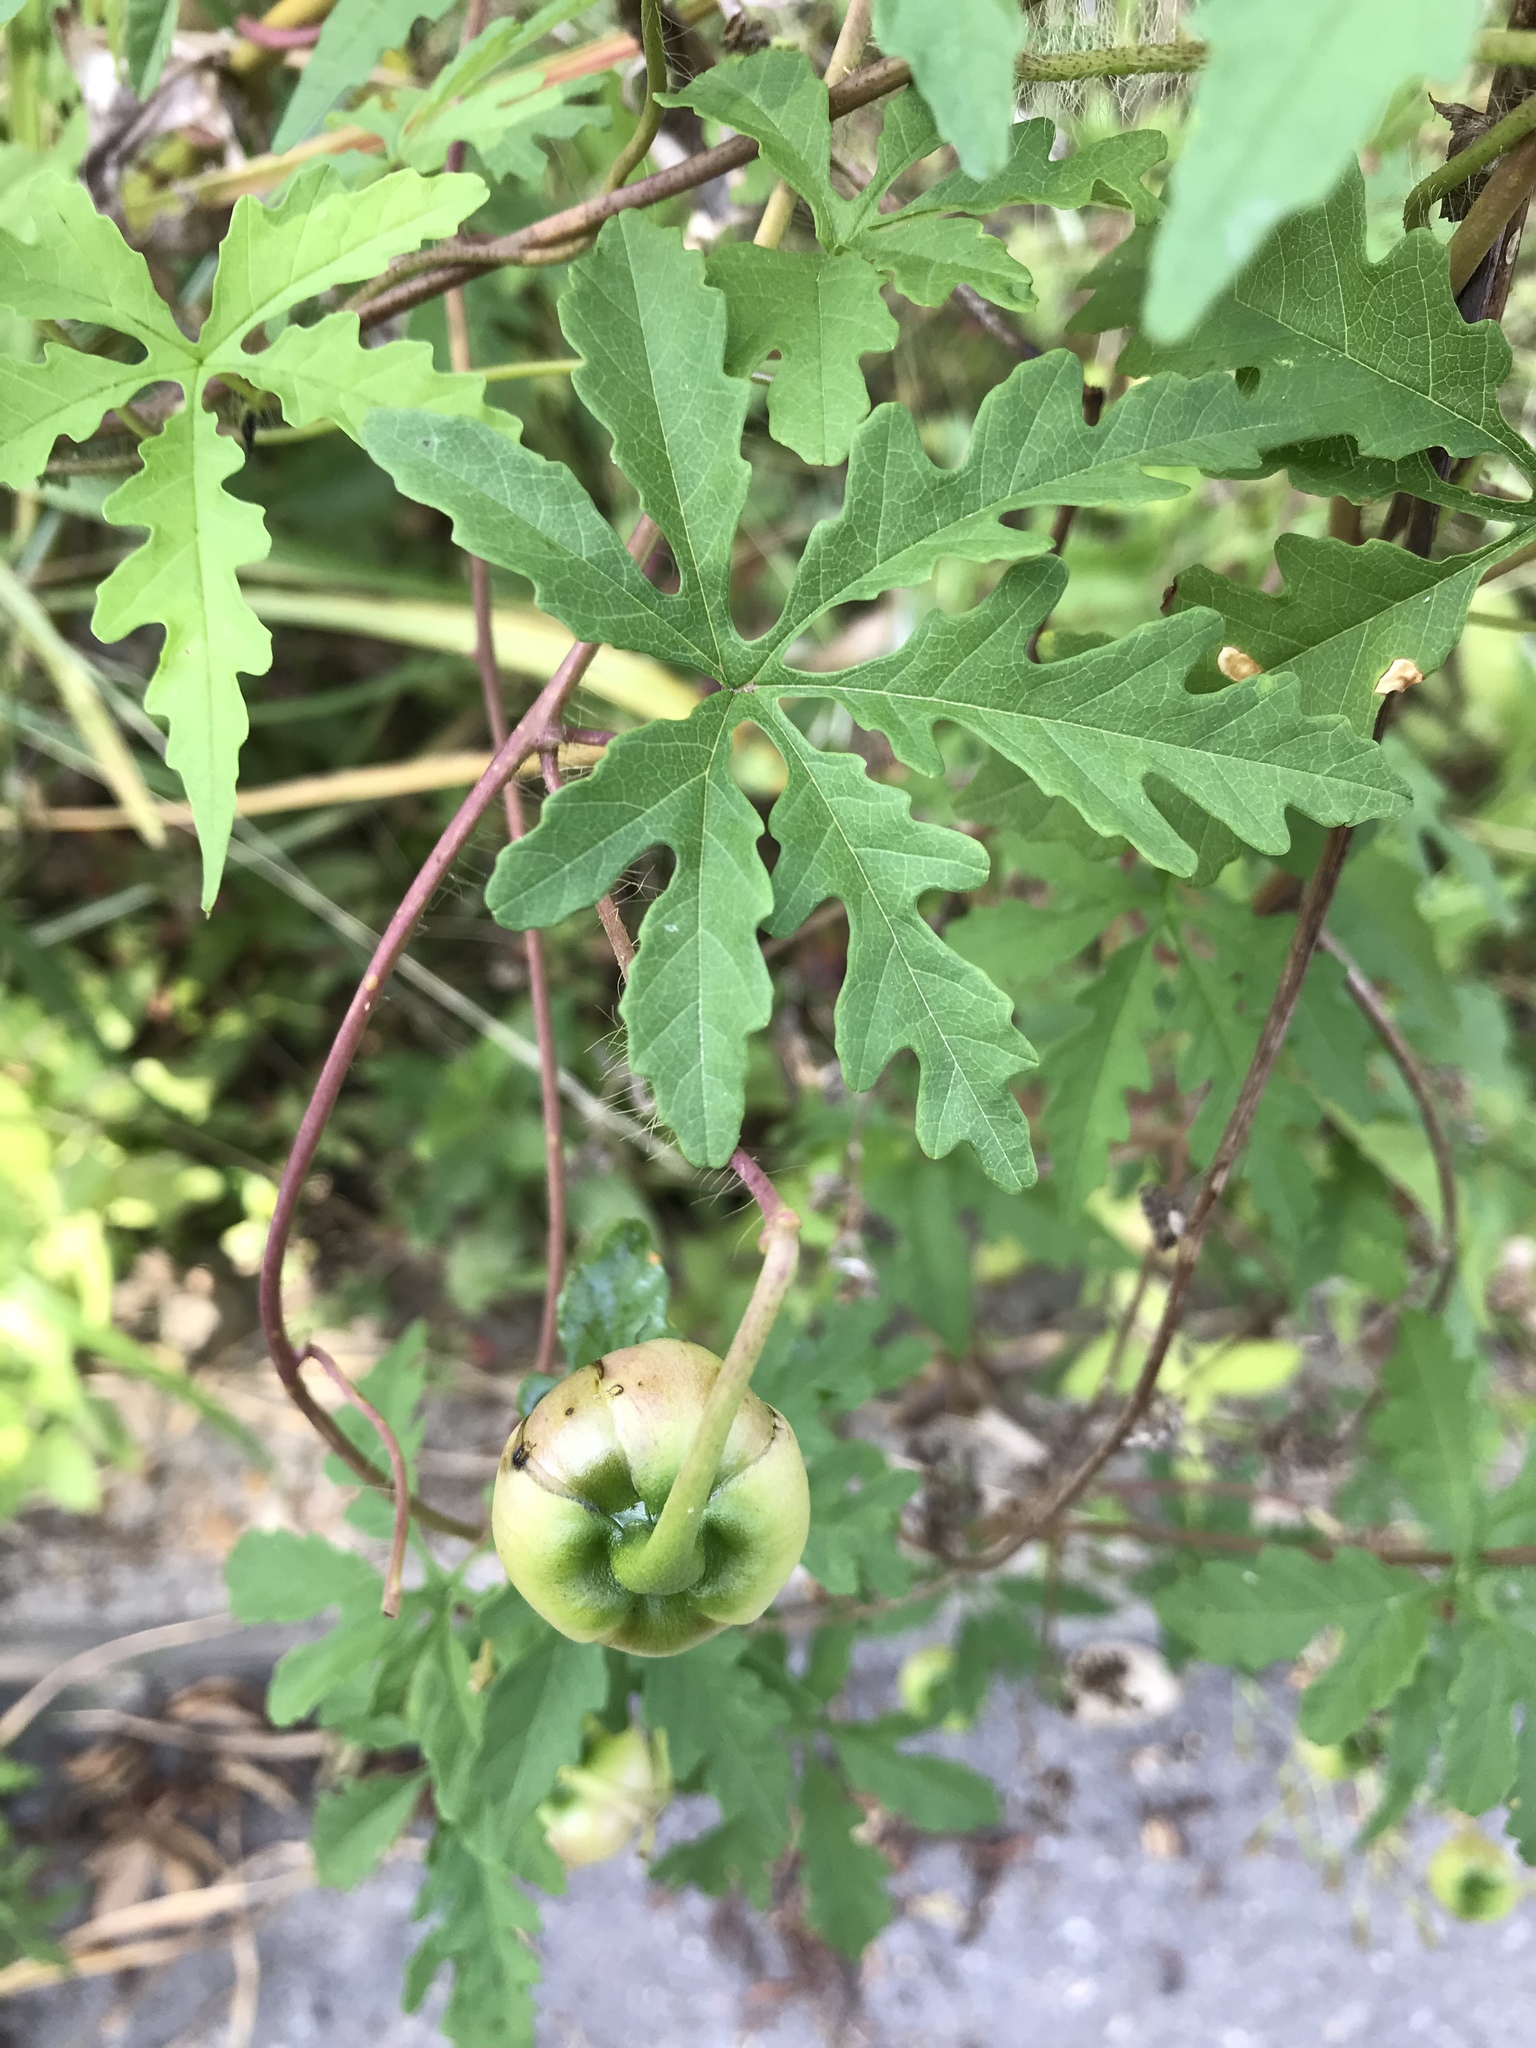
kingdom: Plantae
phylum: Tracheophyta
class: Magnoliopsida
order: Solanales
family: Convolvulaceae
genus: Distimake
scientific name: Distimake dissectus
